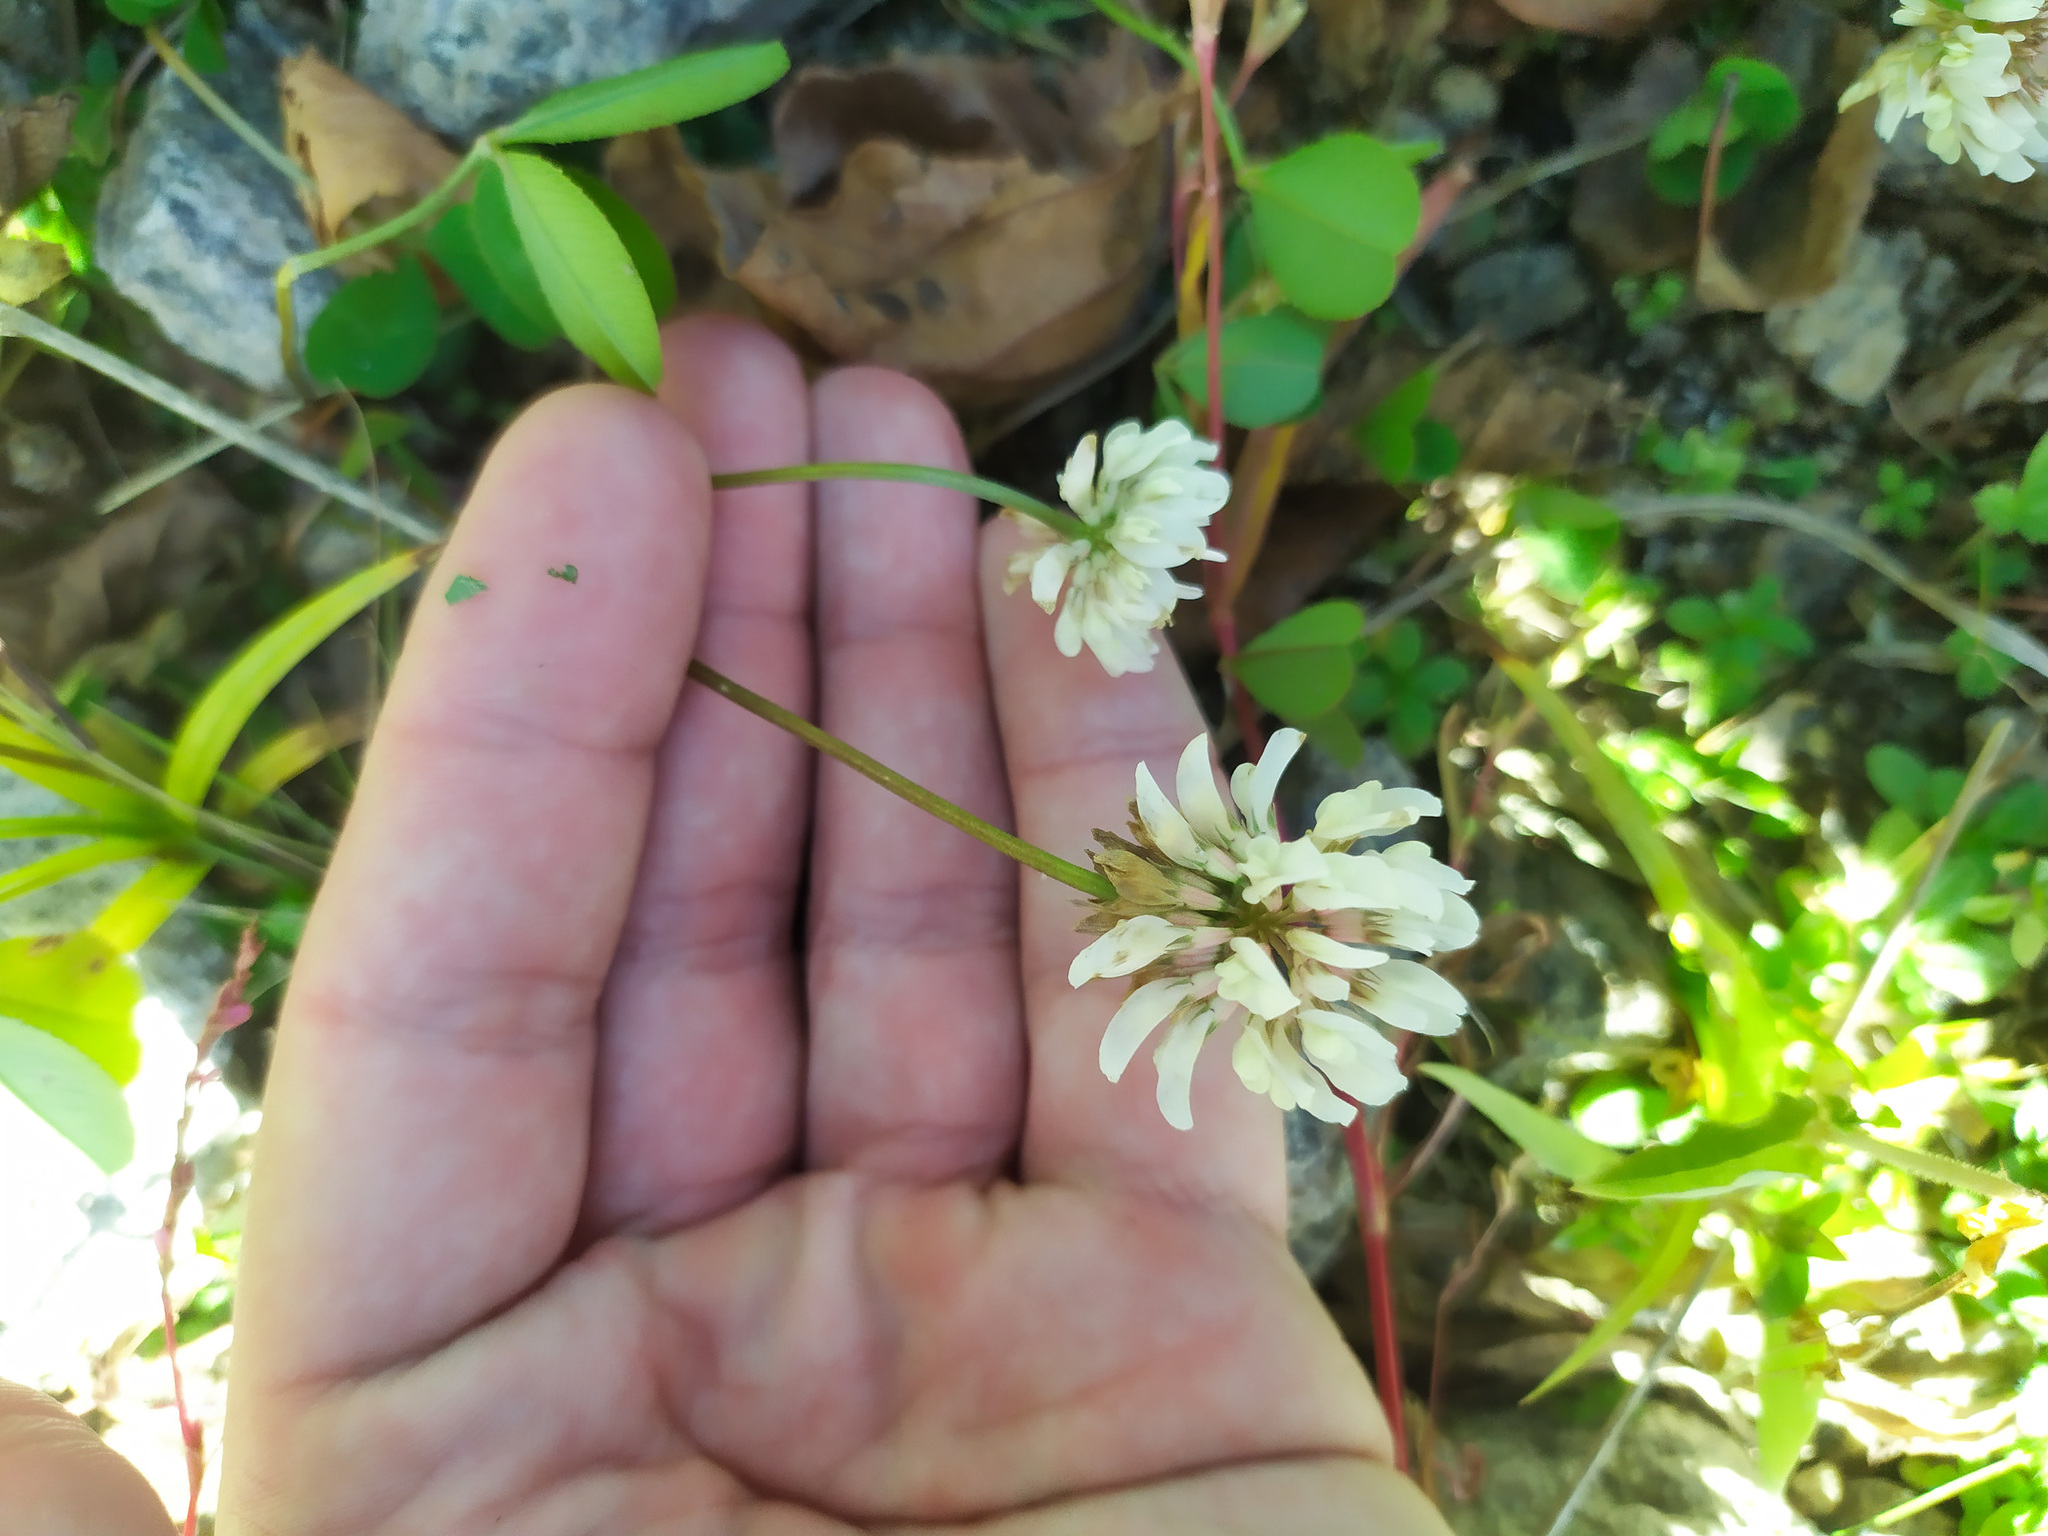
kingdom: Plantae
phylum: Tracheophyta
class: Magnoliopsida
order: Fabales
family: Fabaceae
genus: Trifolium
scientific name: Trifolium repens
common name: White clover
